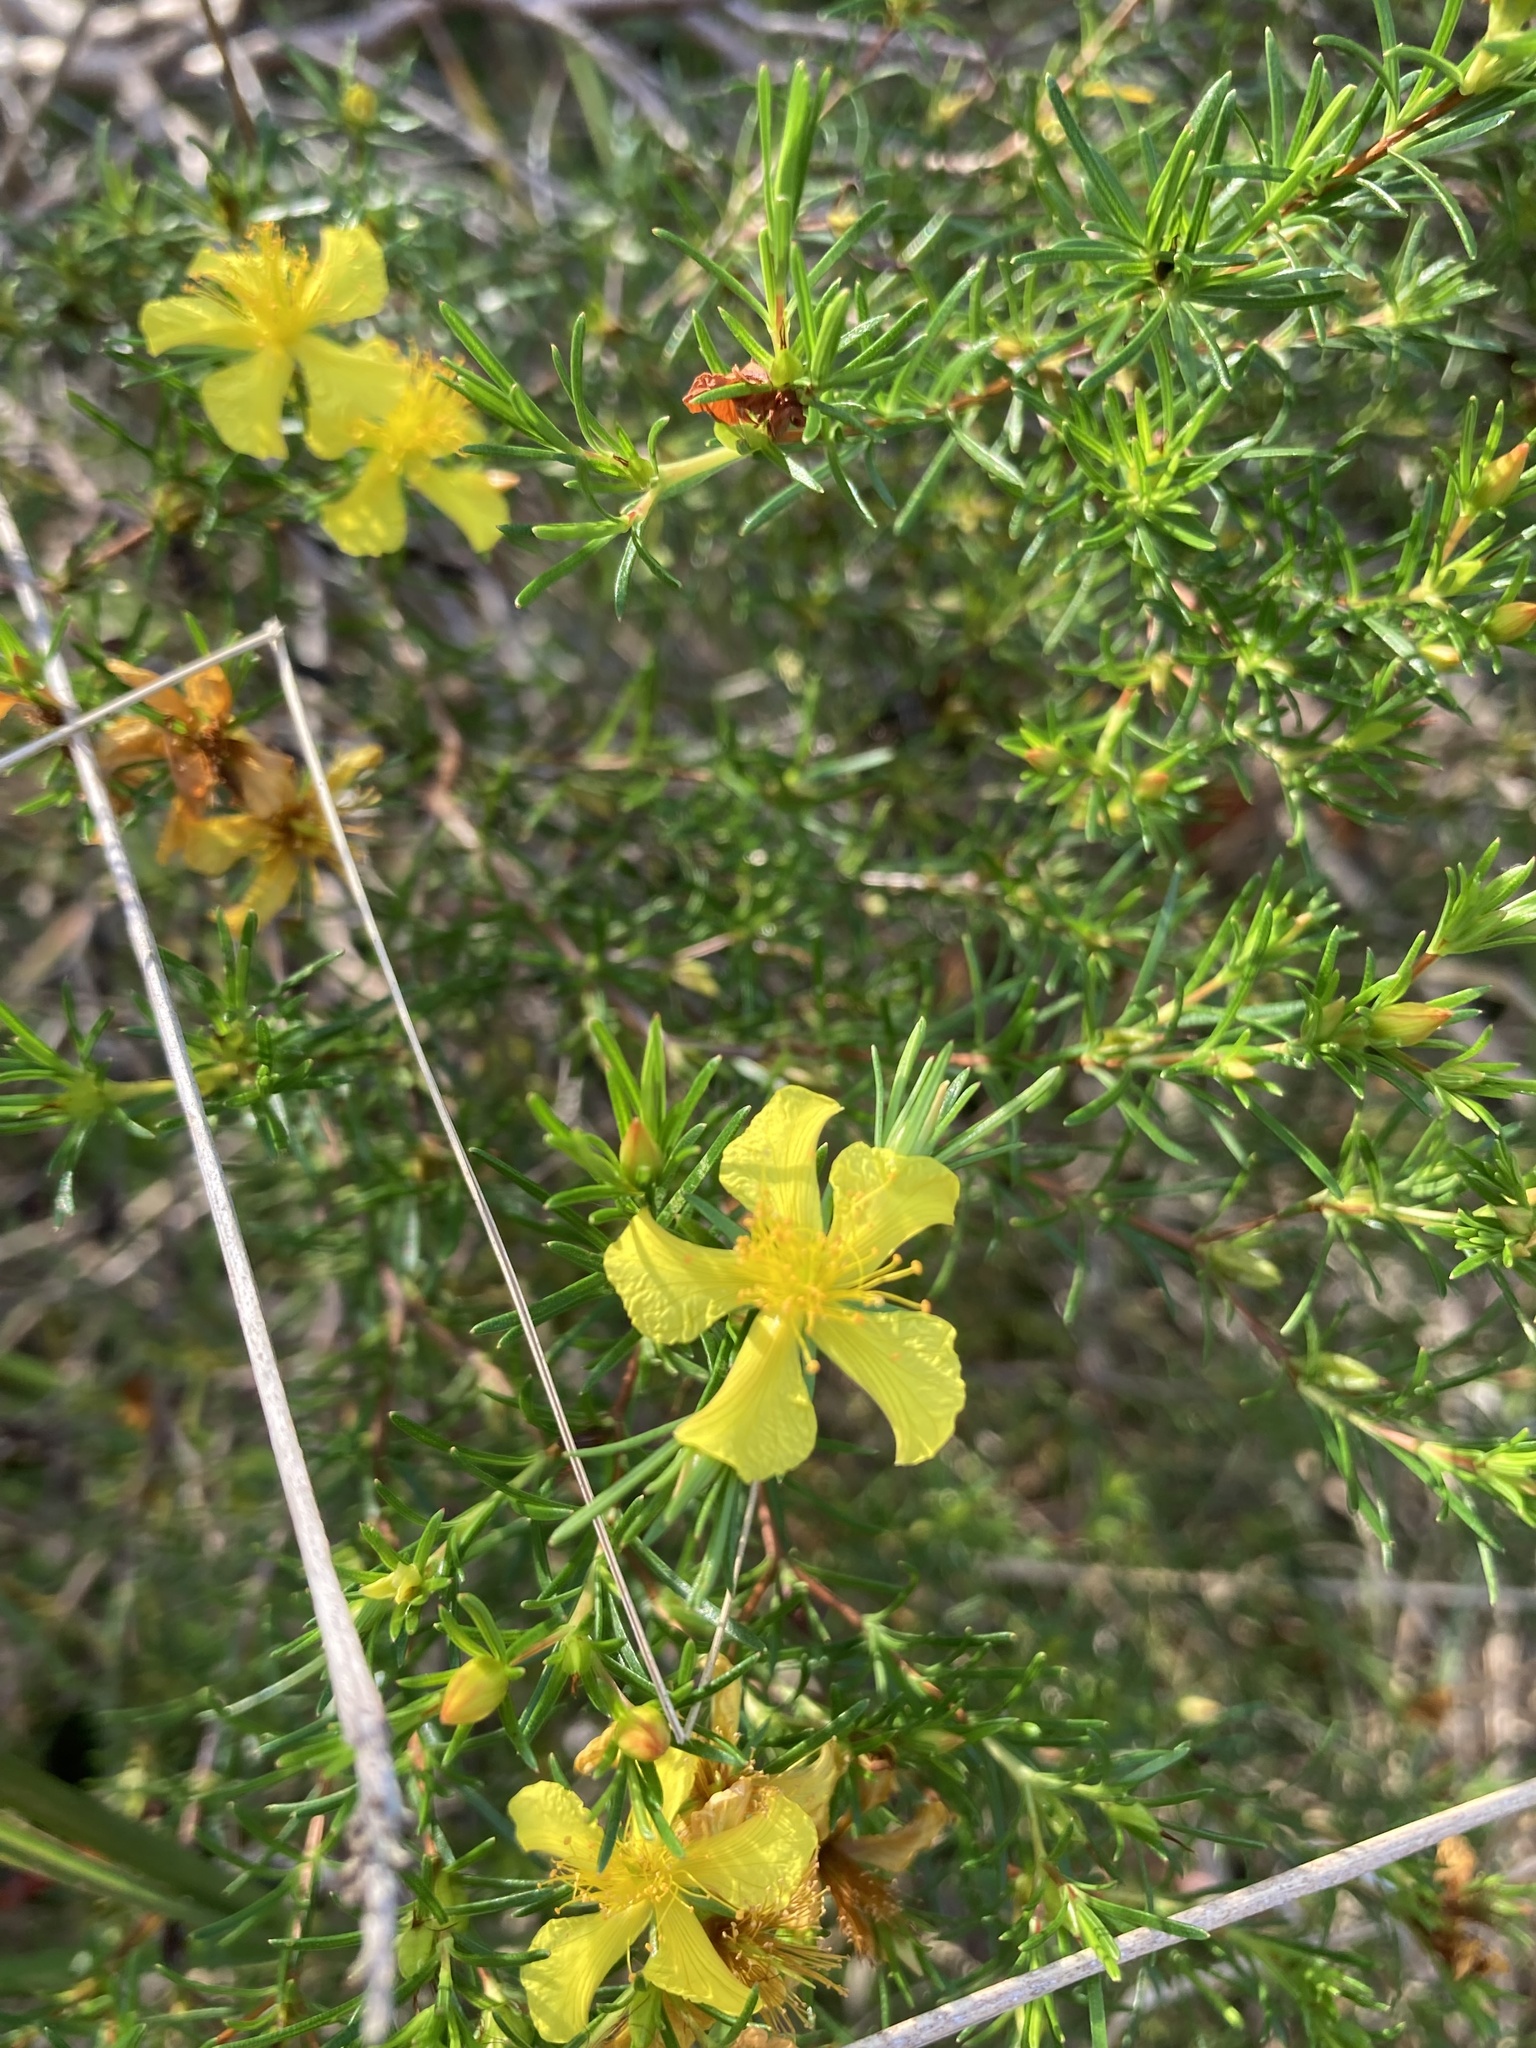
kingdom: Plantae
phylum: Tracheophyta
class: Magnoliopsida
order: Malpighiales
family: Hypericaceae
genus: Hypericum
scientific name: Hypericum fasciculatum
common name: Peelbark st. john's wort
